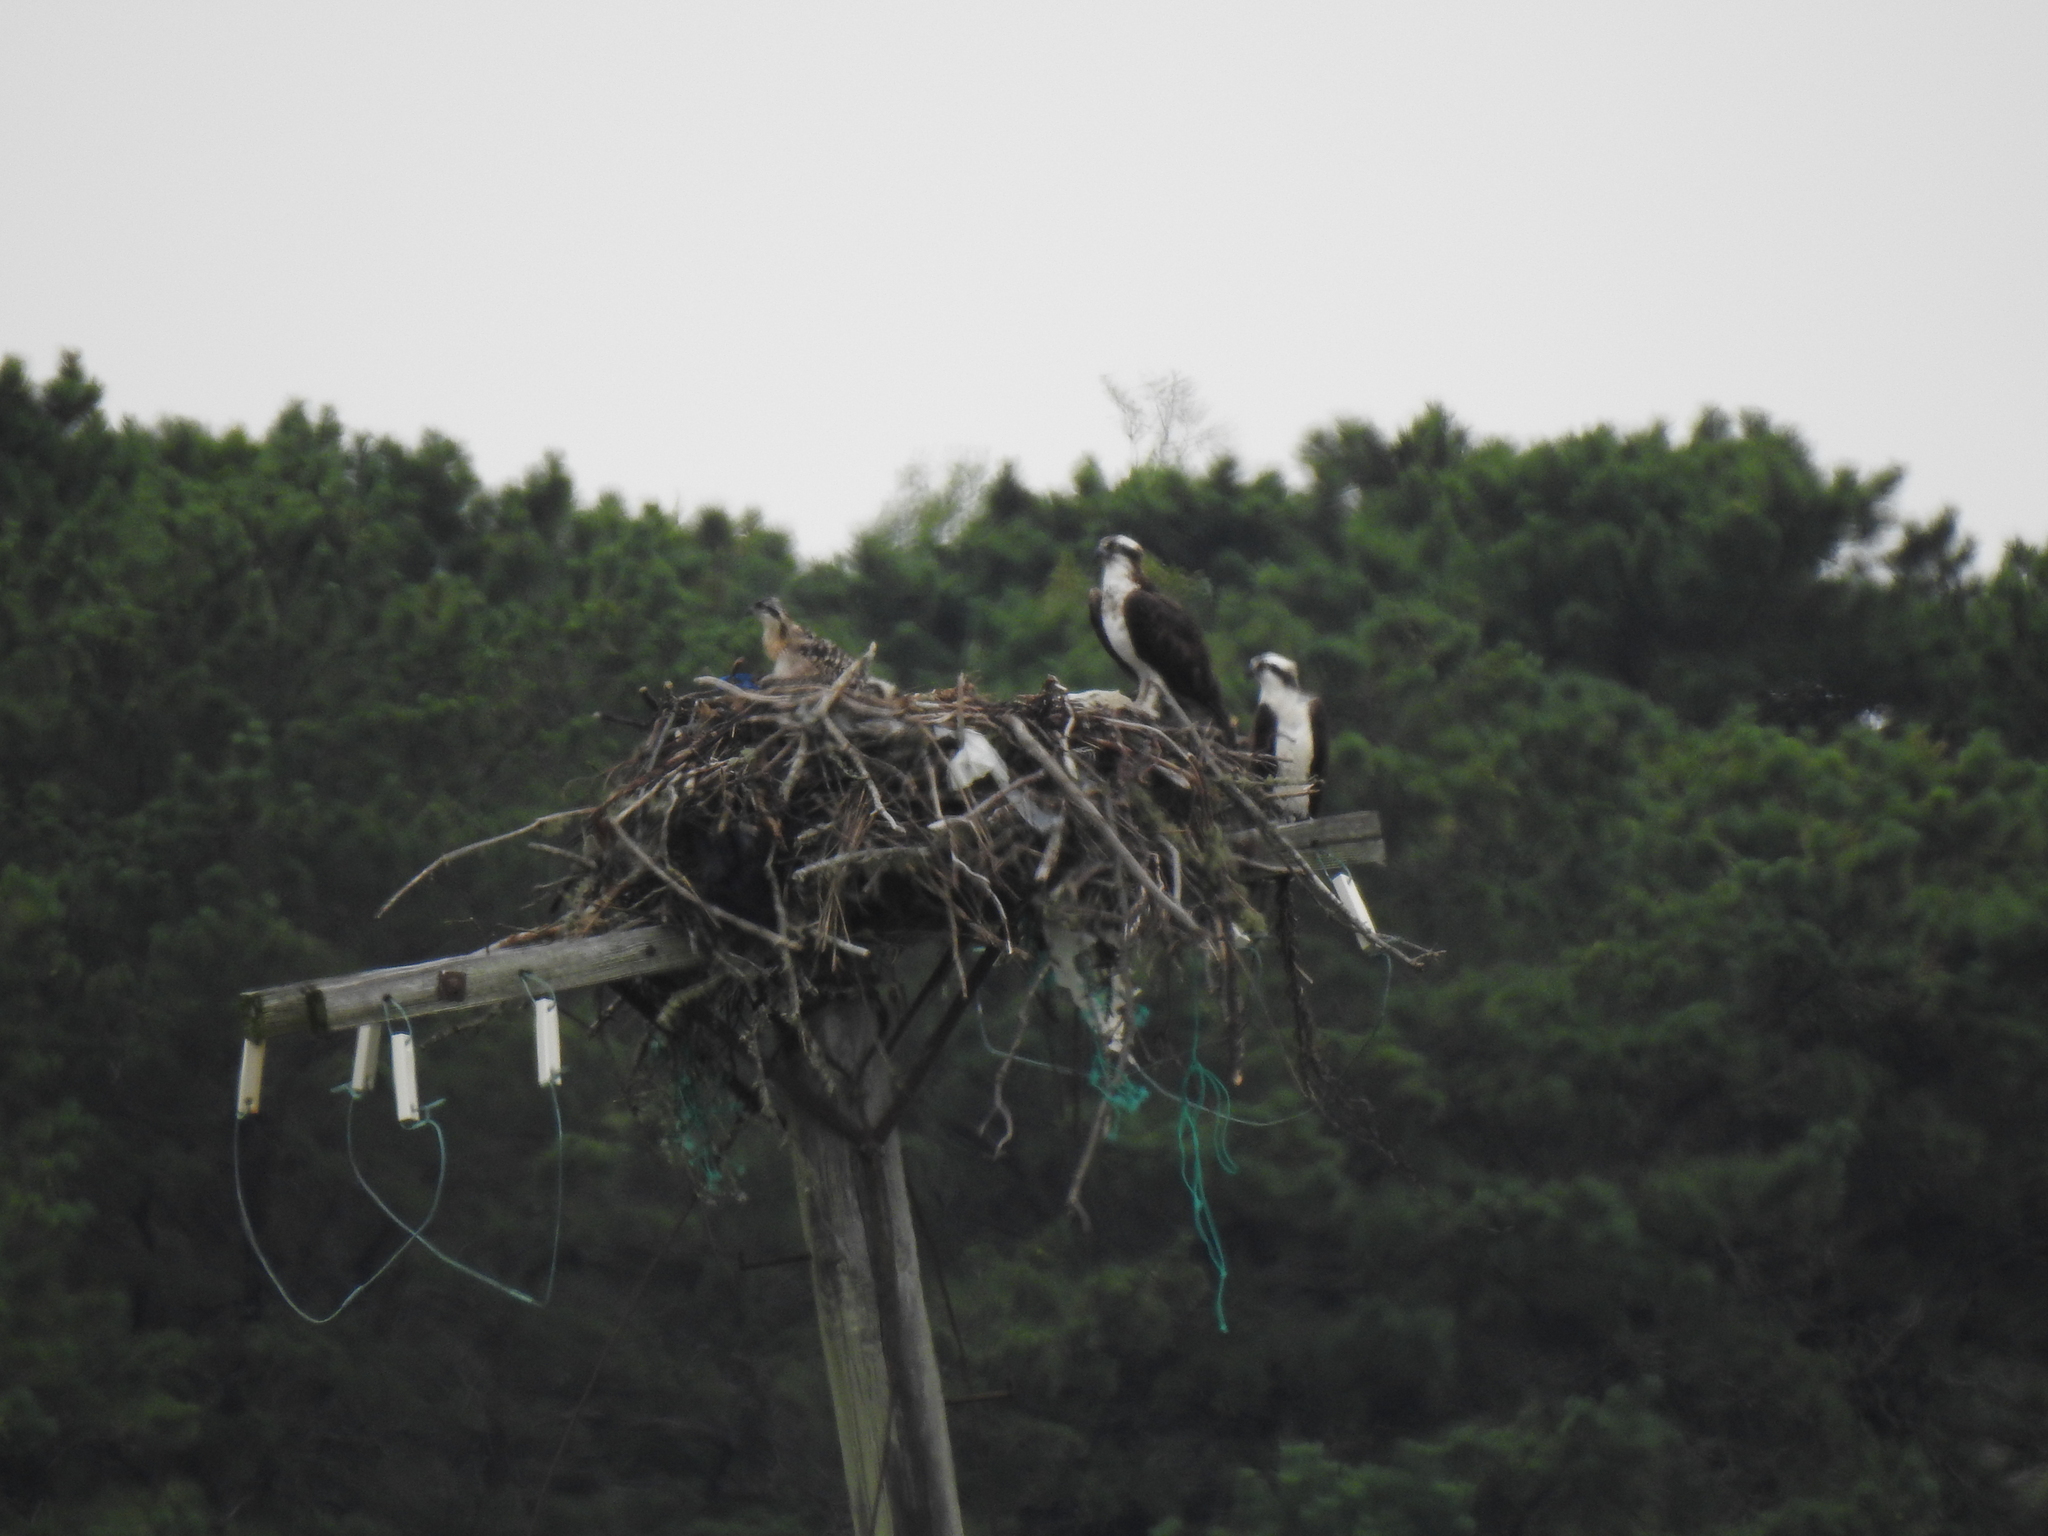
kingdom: Animalia
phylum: Chordata
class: Aves
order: Accipitriformes
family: Pandionidae
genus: Pandion
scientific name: Pandion haliaetus
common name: Osprey
